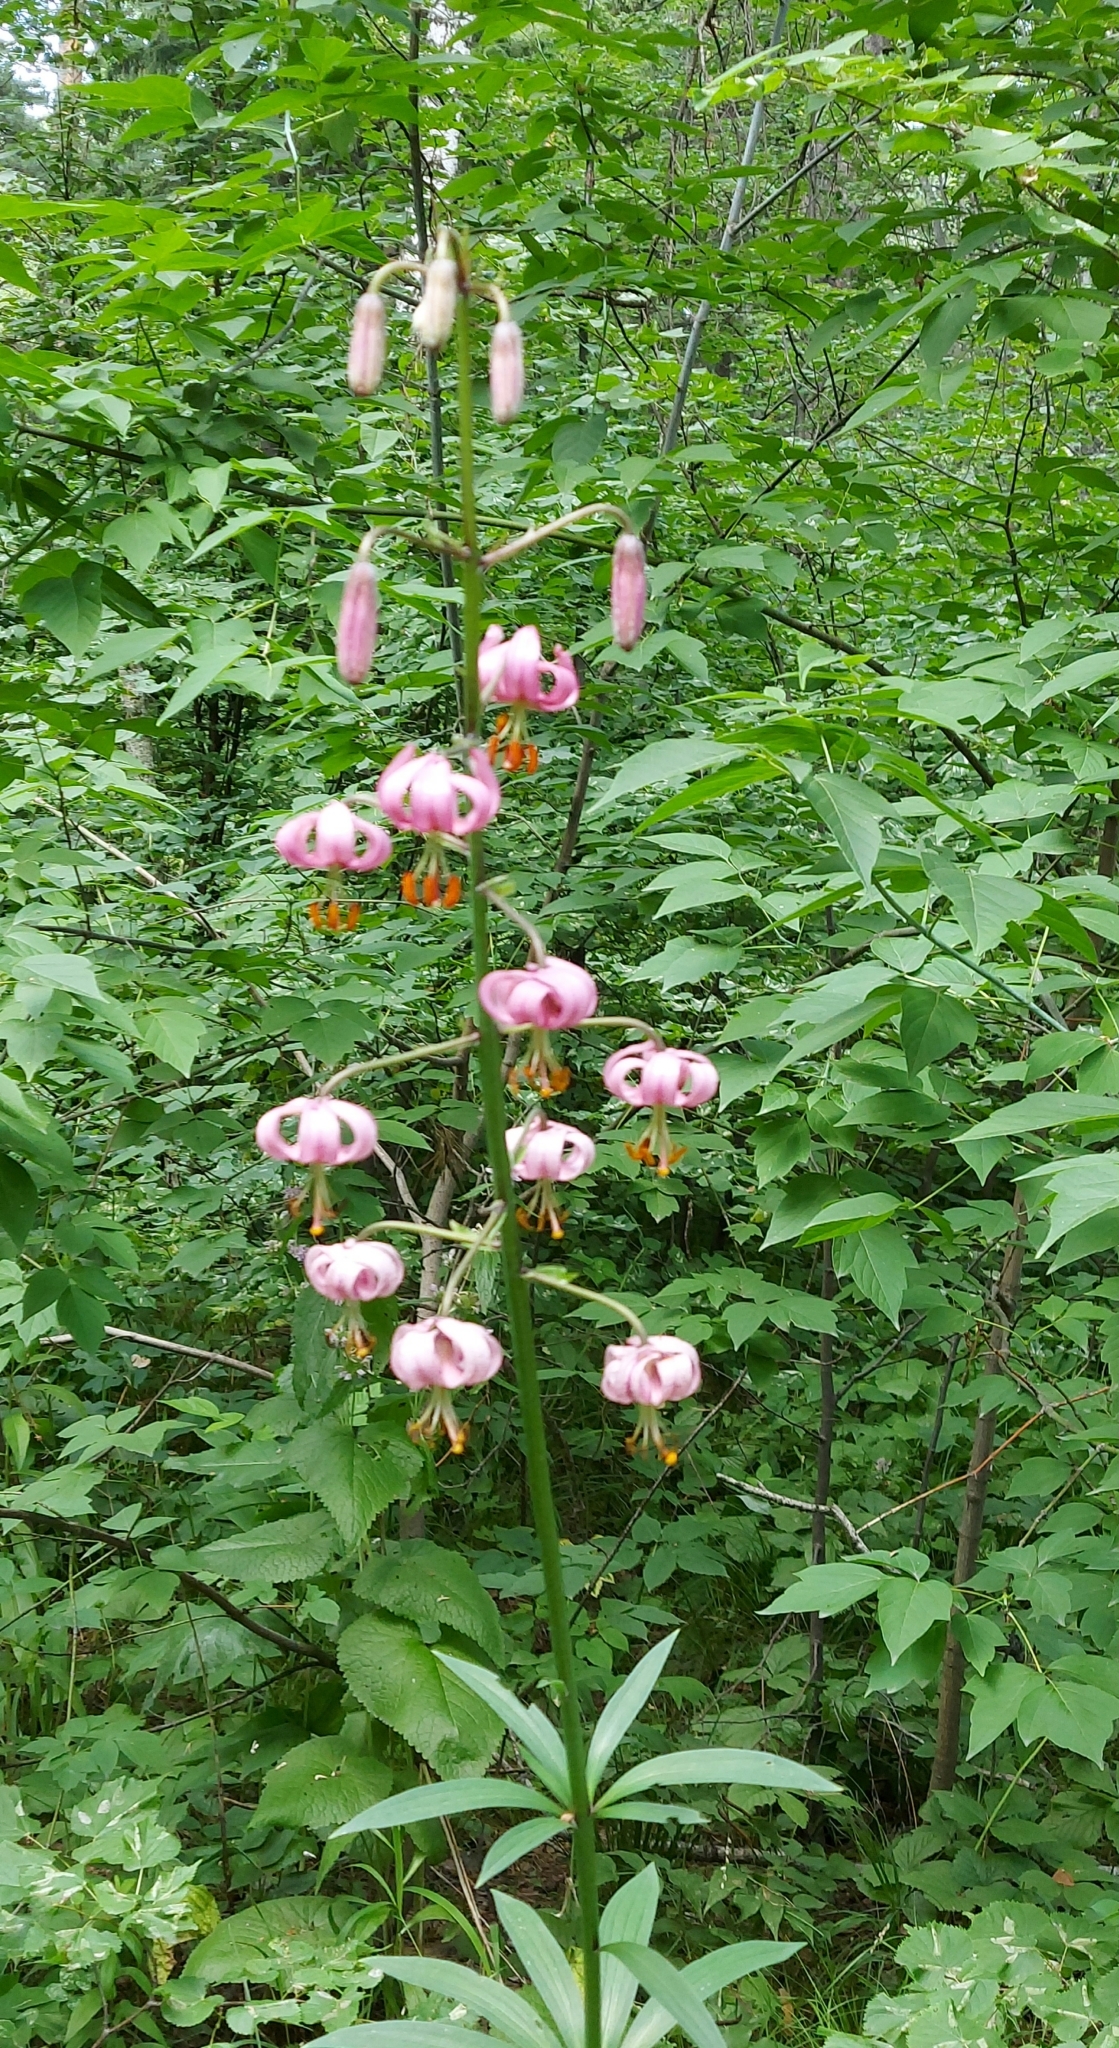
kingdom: Plantae
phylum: Tracheophyta
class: Liliopsida
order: Liliales
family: Liliaceae
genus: Lilium
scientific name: Lilium martagon
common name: Martagon lily
